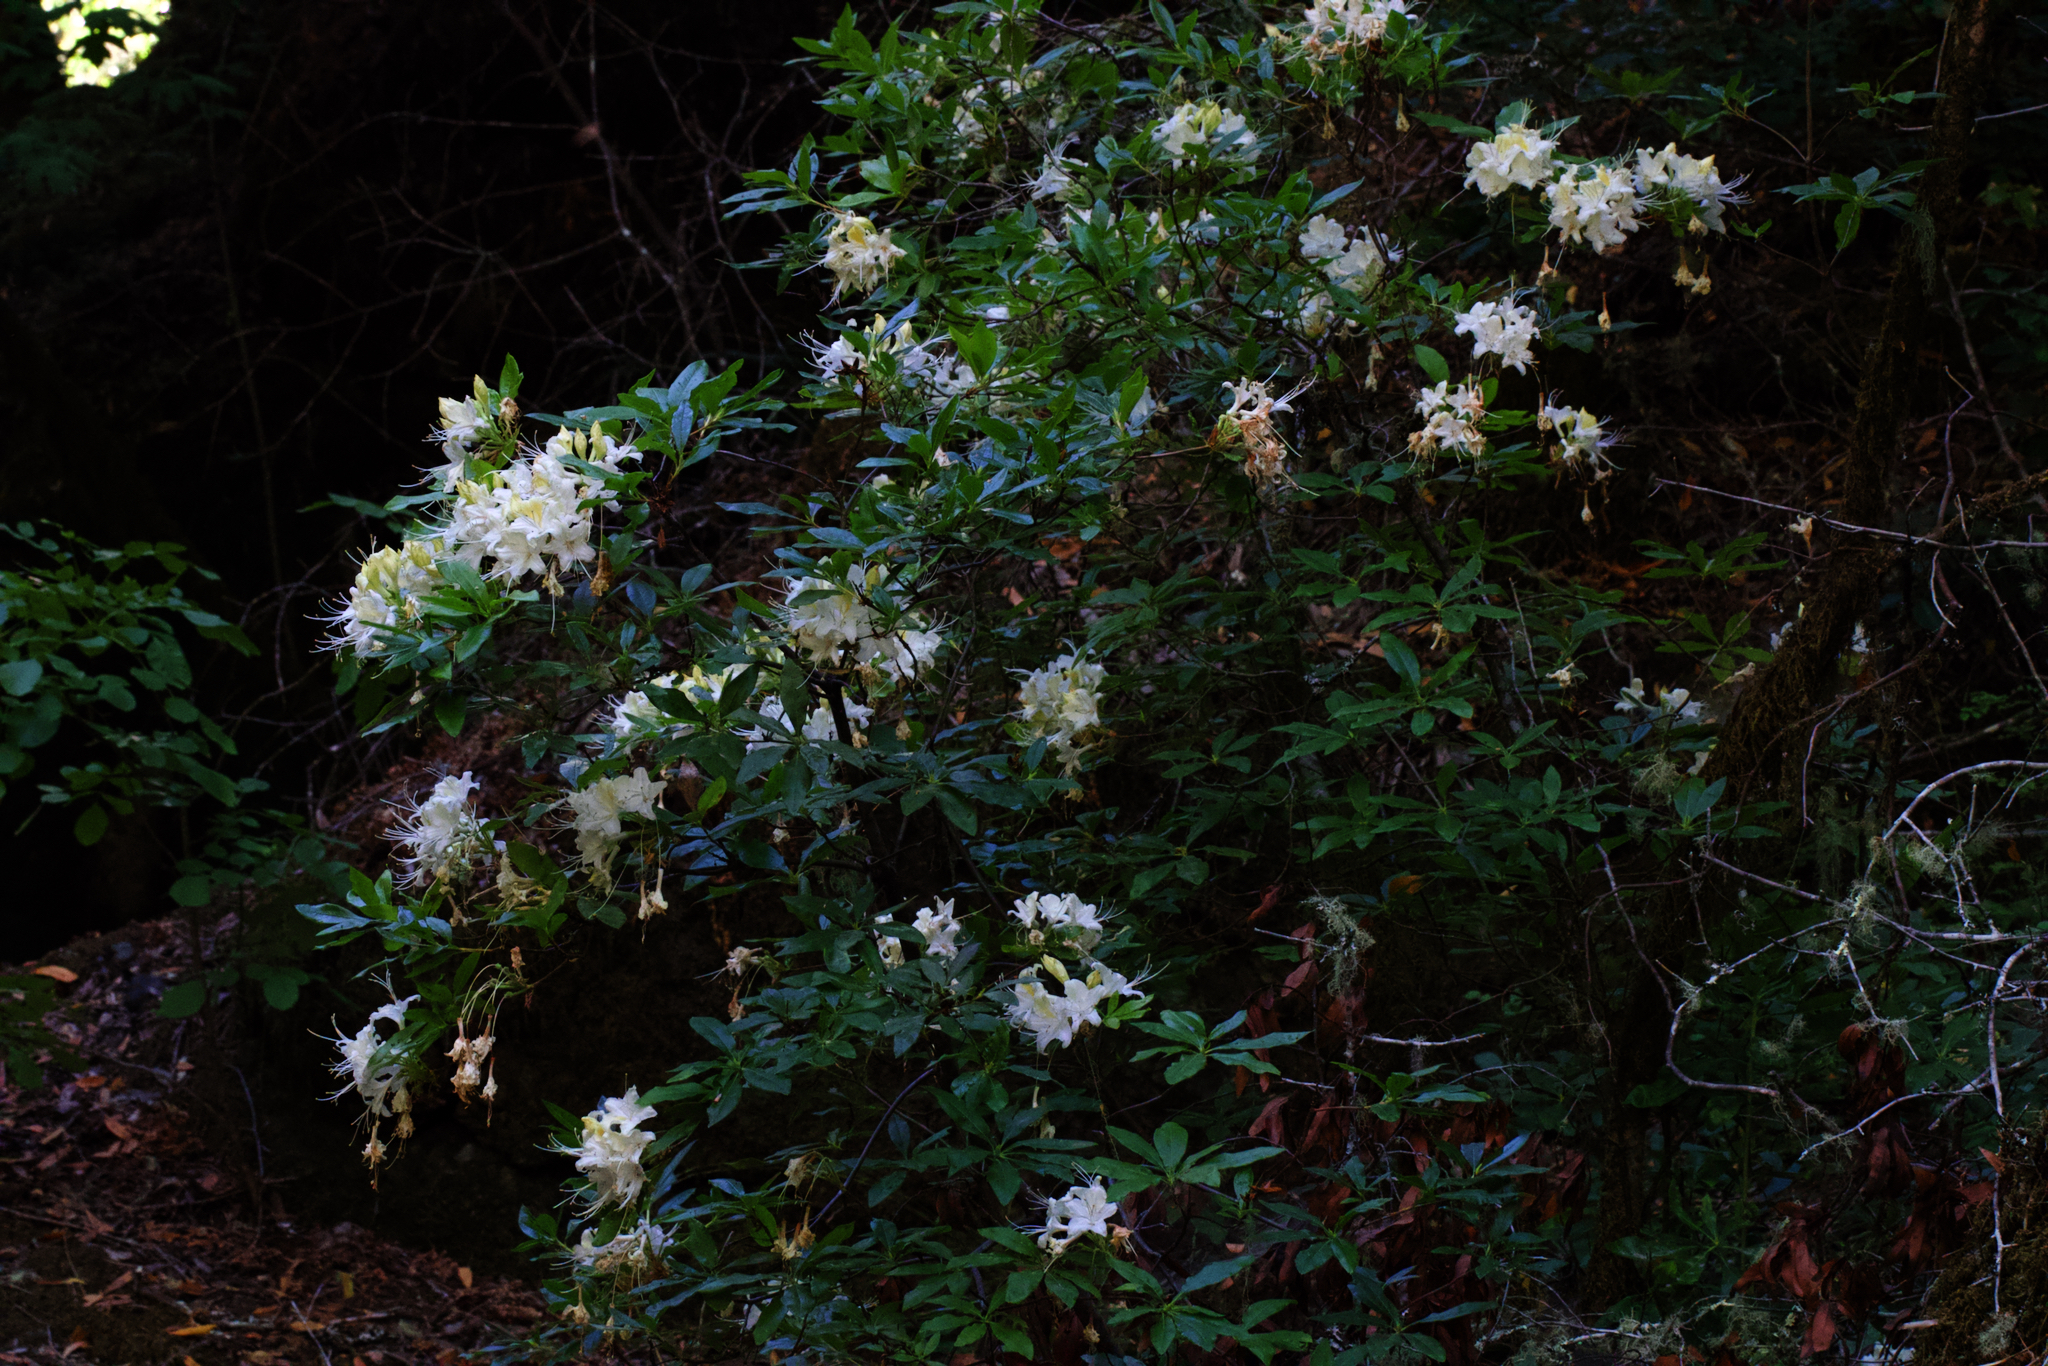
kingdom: Plantae
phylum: Tracheophyta
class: Magnoliopsida
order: Ericales
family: Ericaceae
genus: Rhododendron
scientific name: Rhododendron occidentale
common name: Western azalea
